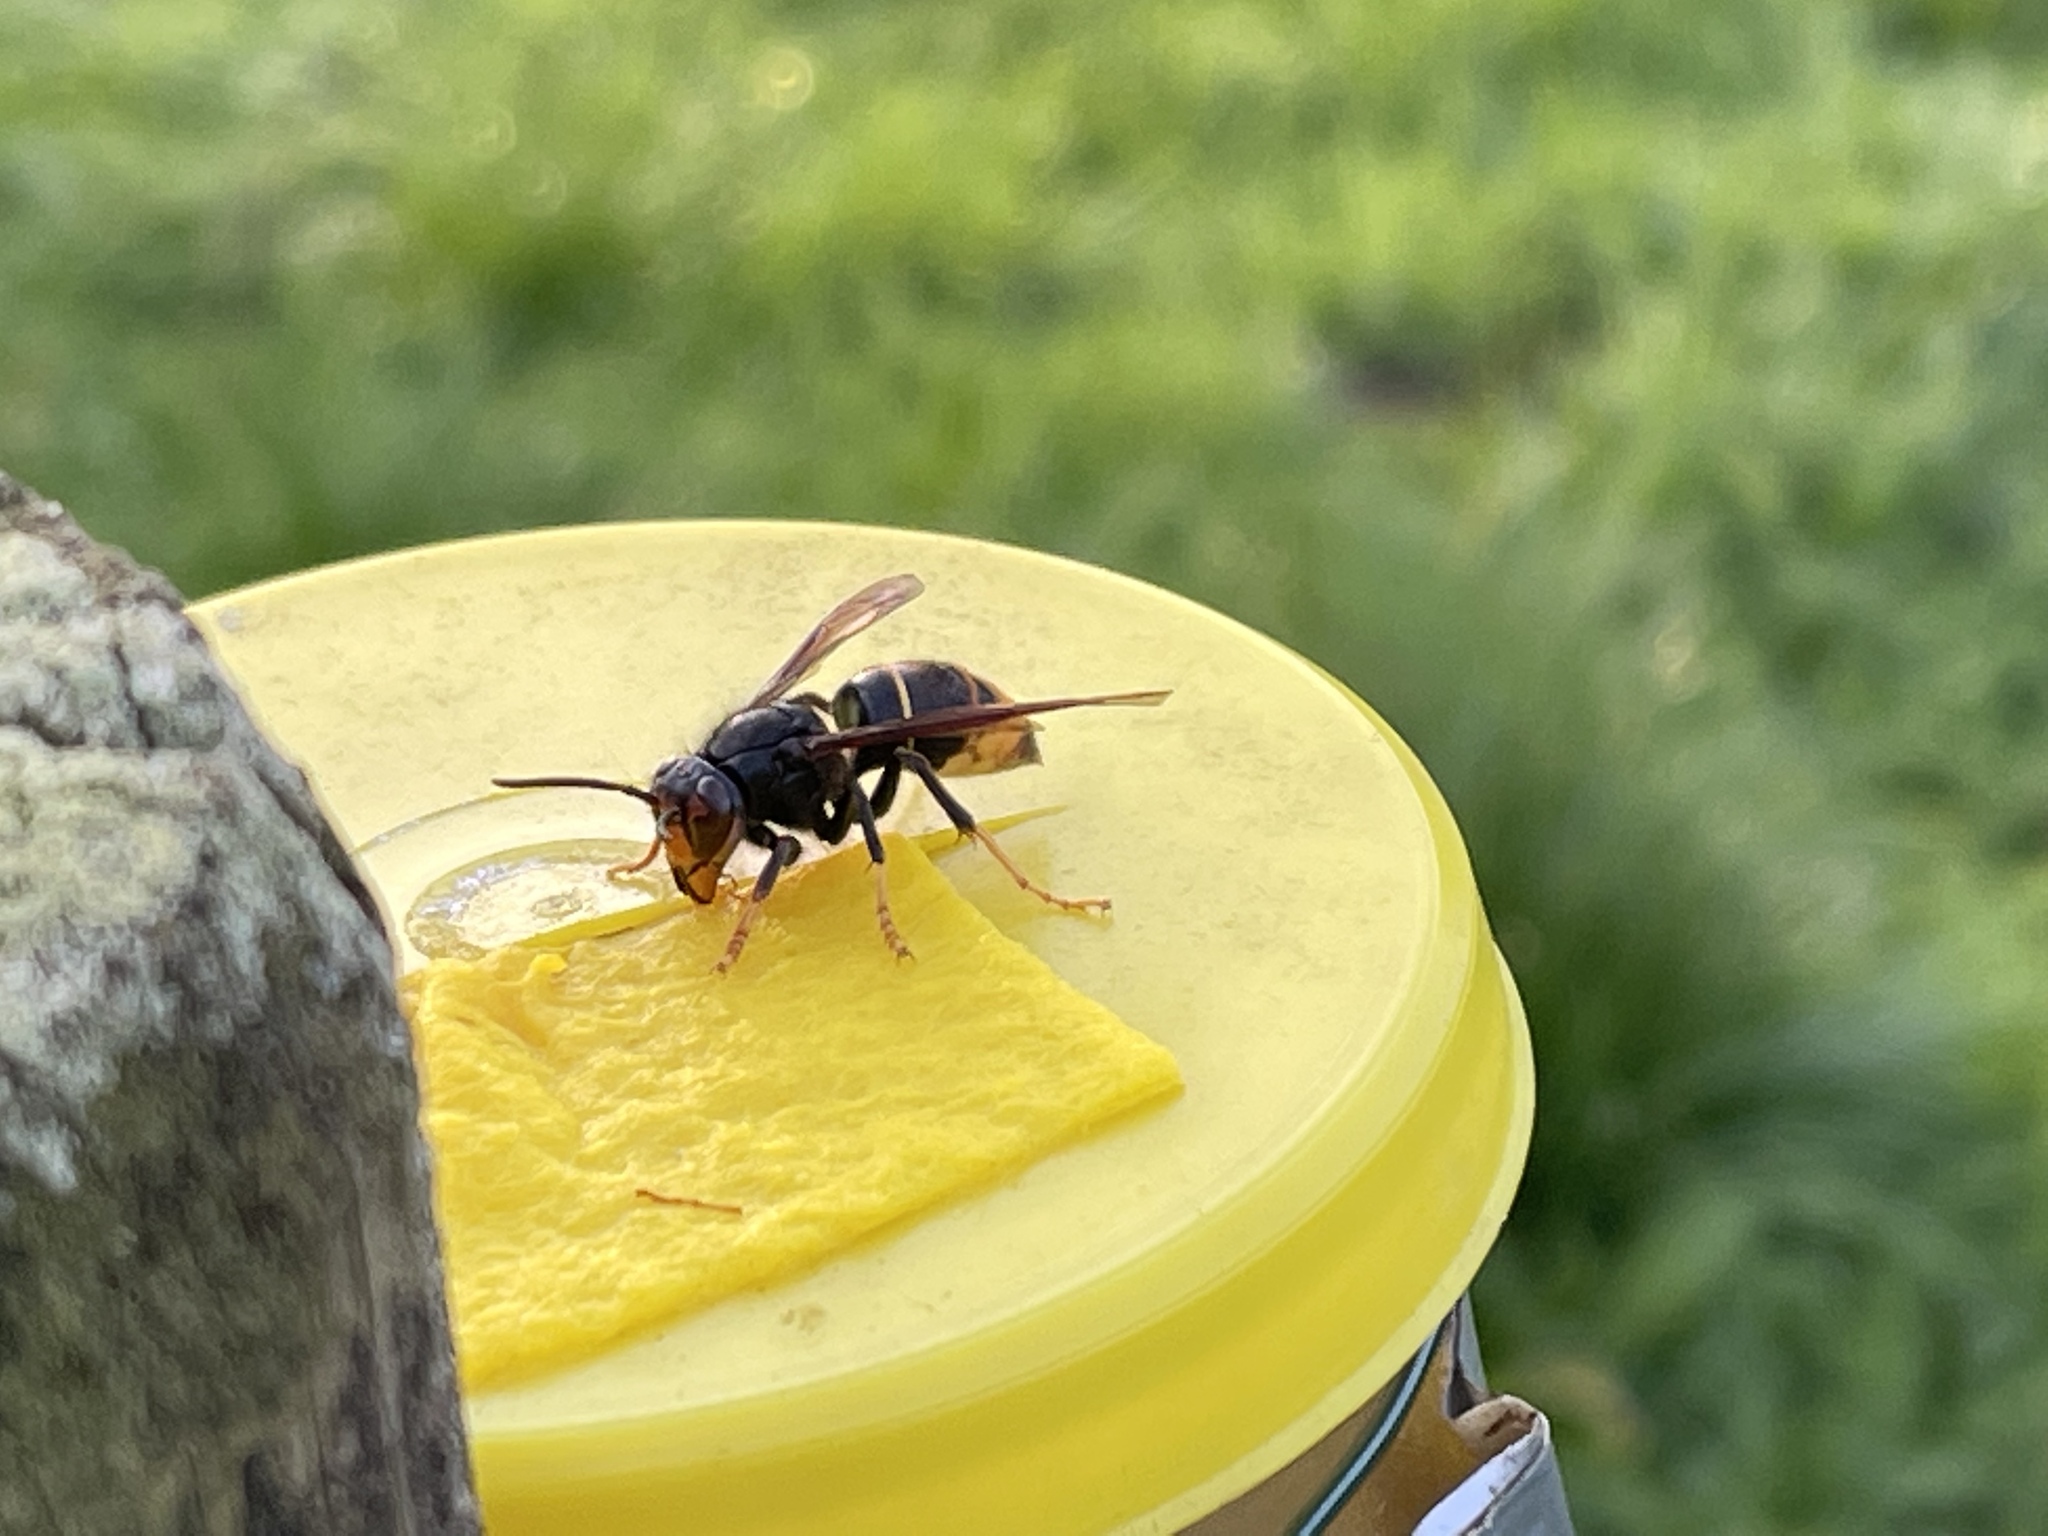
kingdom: Animalia
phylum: Arthropoda
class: Insecta
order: Hymenoptera
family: Vespidae
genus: Vespa
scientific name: Vespa velutina
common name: Asian hornet
